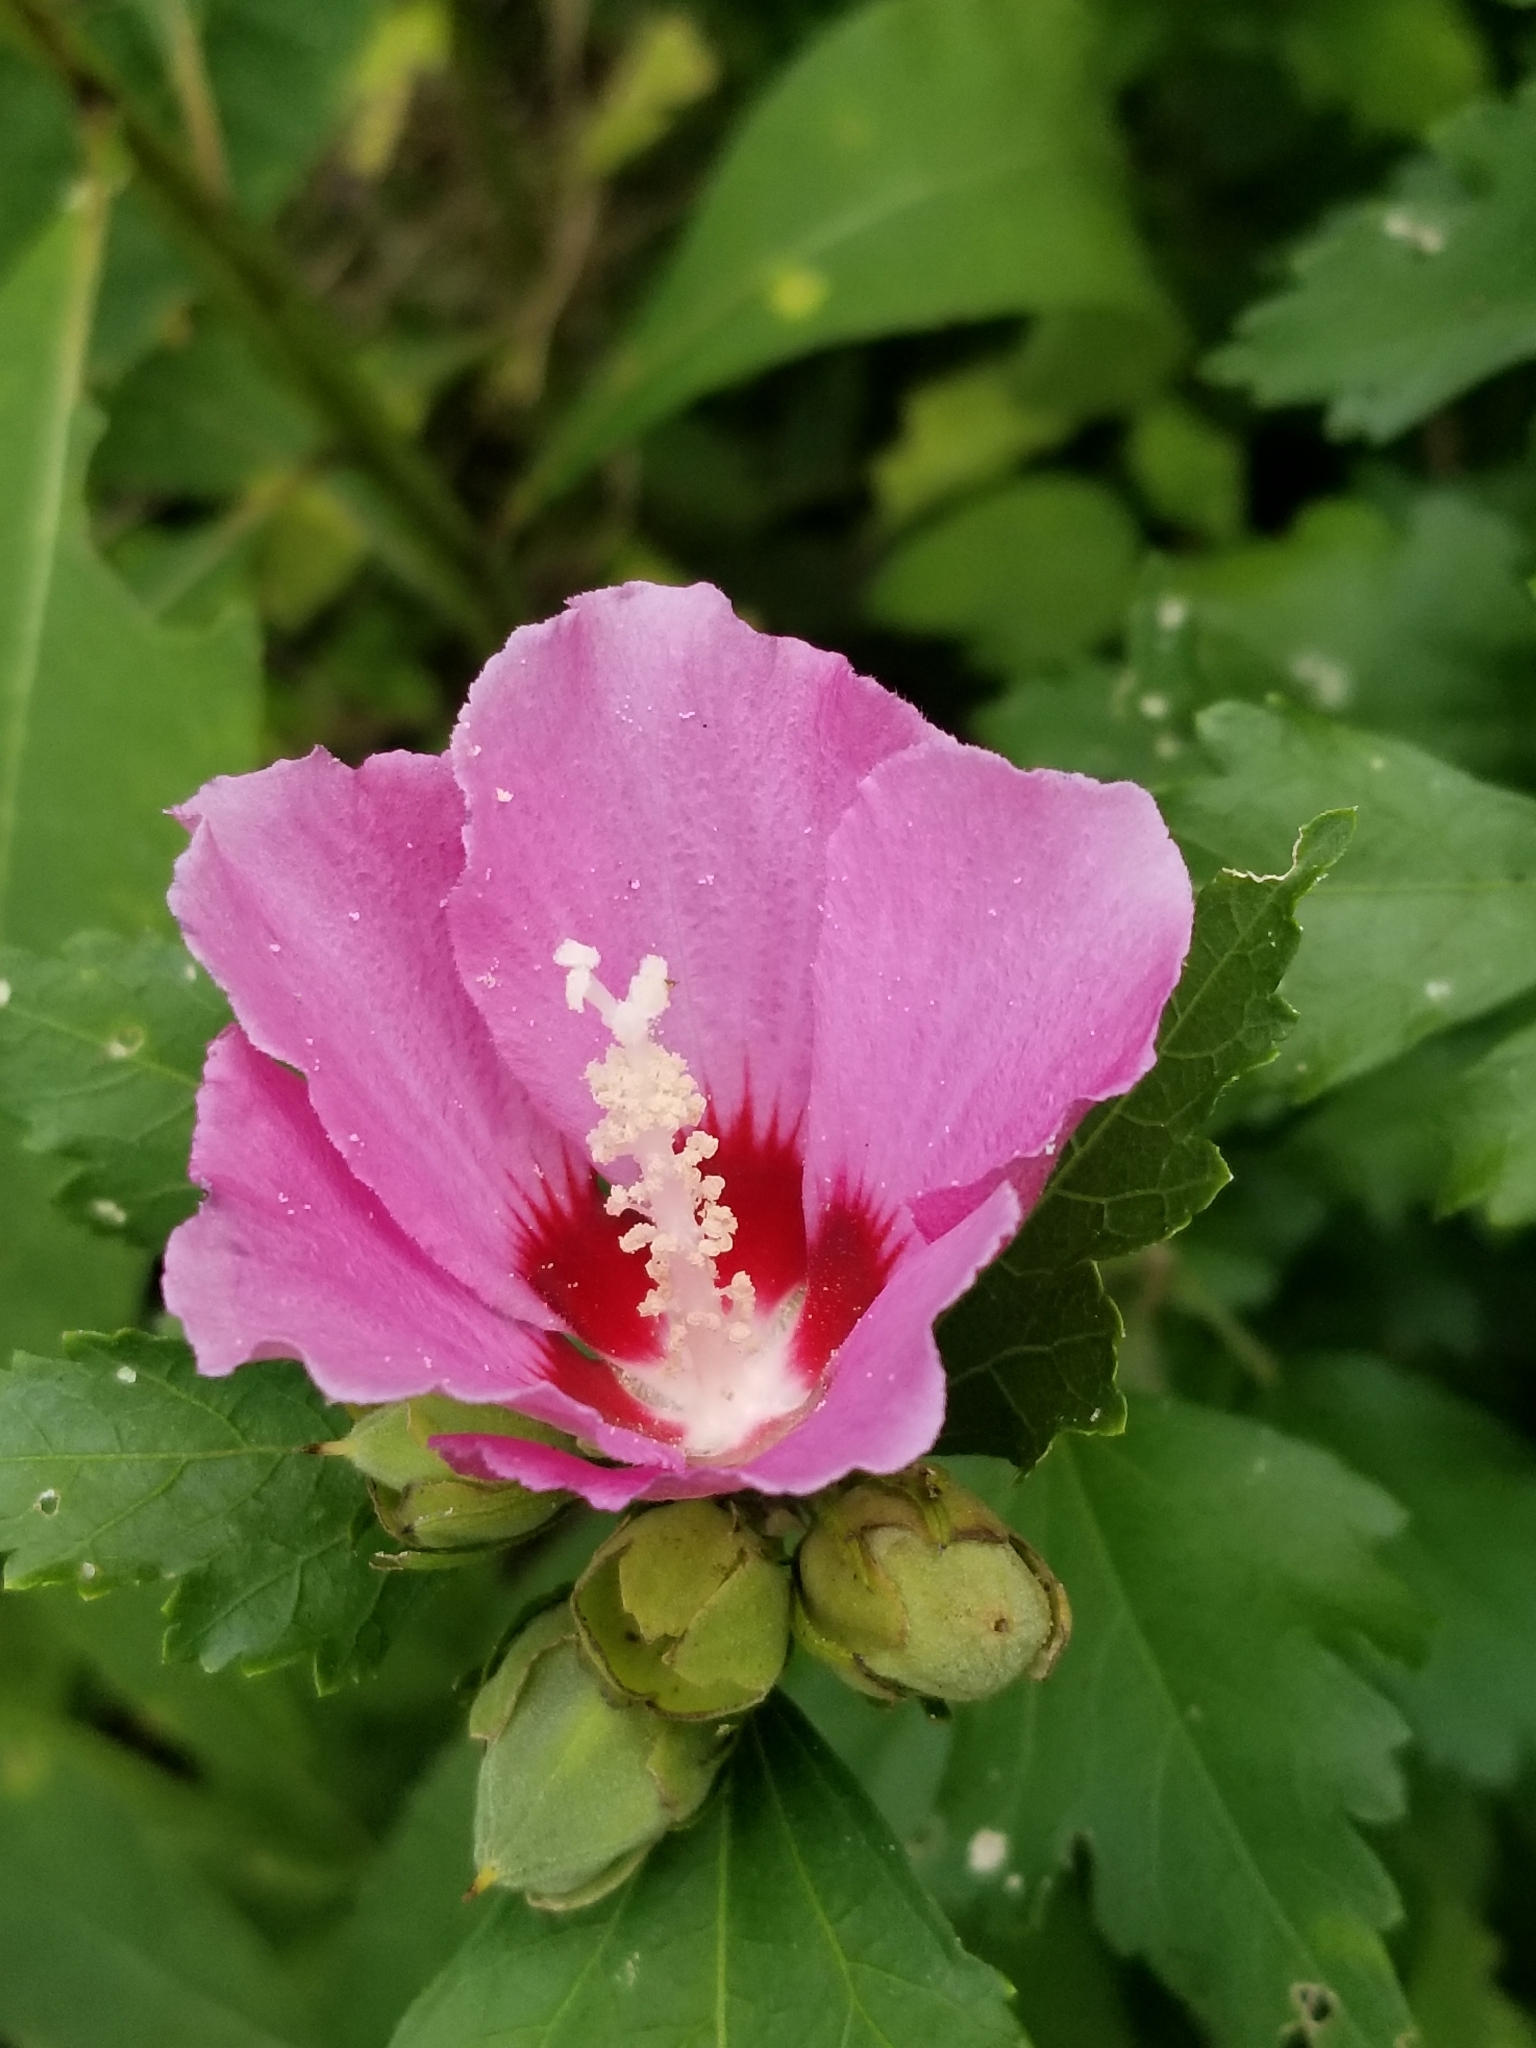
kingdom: Plantae
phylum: Tracheophyta
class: Magnoliopsida
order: Malvales
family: Malvaceae
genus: Hibiscus
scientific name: Hibiscus syriacus
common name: Syrian ketmia
